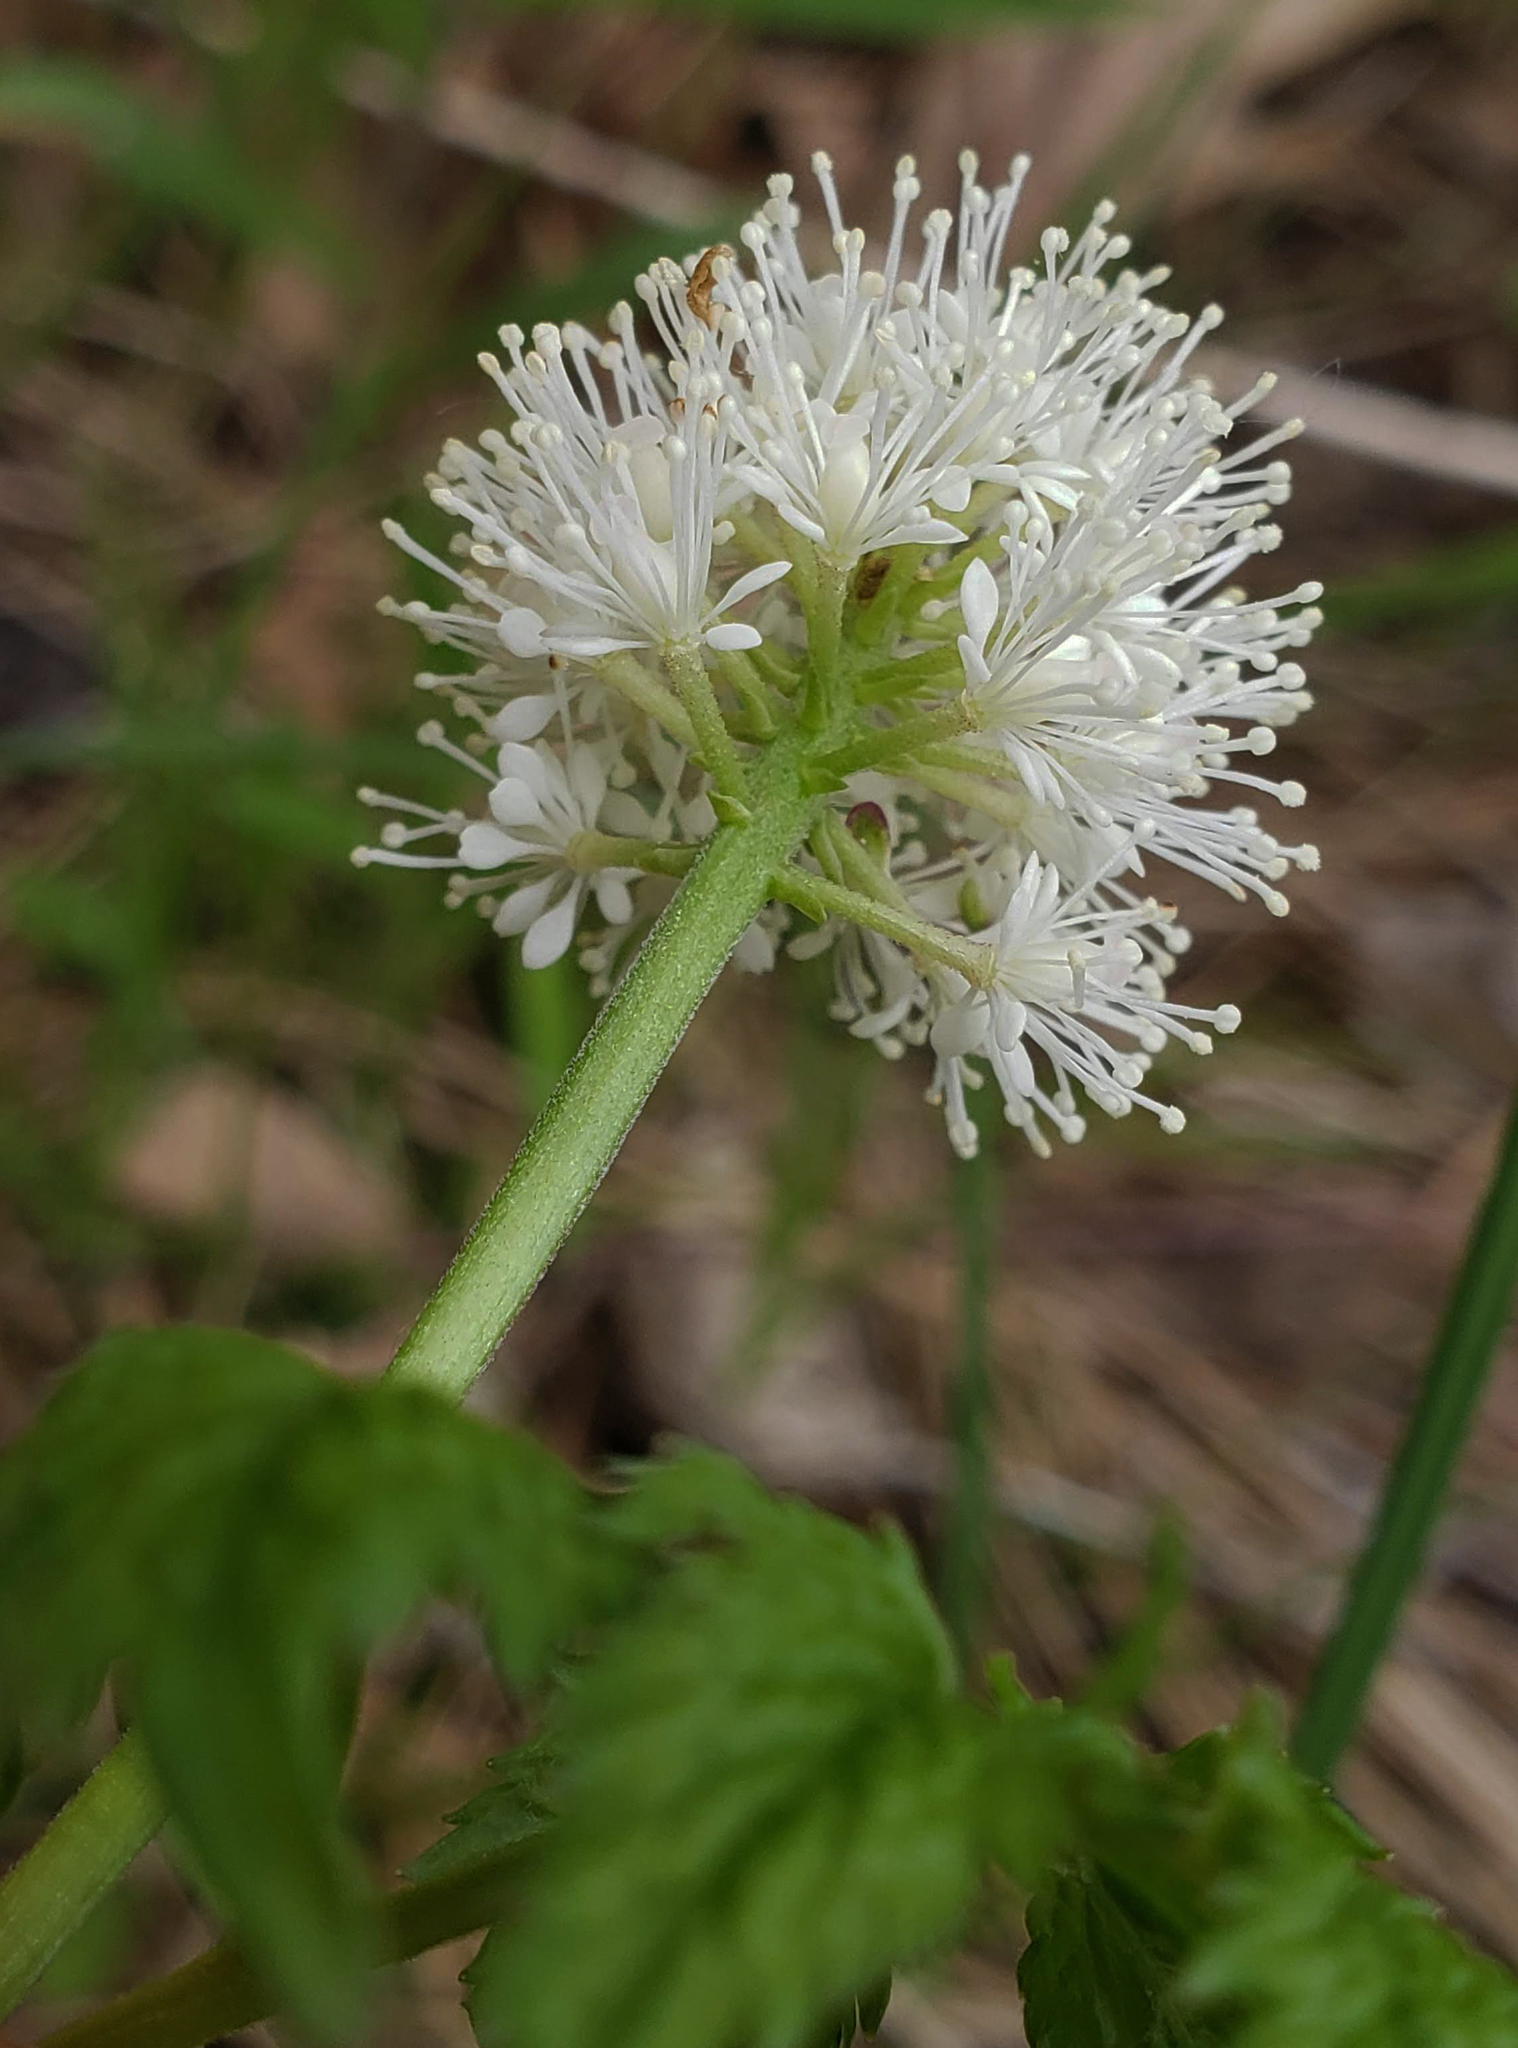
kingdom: Plantae
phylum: Tracheophyta
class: Magnoliopsida
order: Ranunculales
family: Ranunculaceae
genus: Actaea
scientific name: Actaea rubra
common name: Red baneberry
